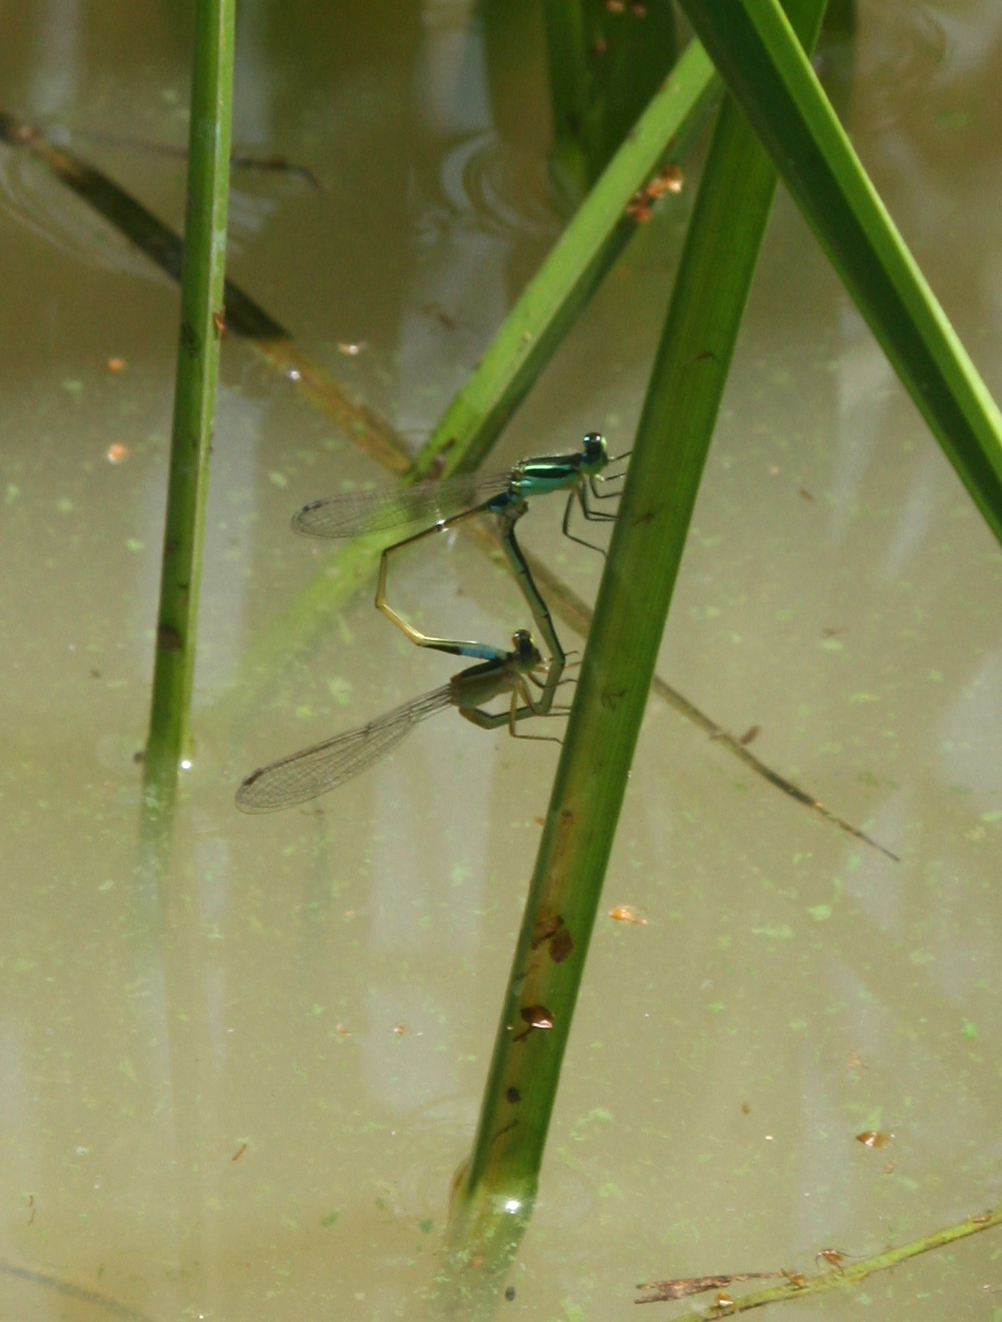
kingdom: Animalia
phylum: Arthropoda
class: Insecta
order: Odonata
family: Coenagrionidae
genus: Ischnura
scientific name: Ischnura senegalensis
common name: Tropical bluetail
